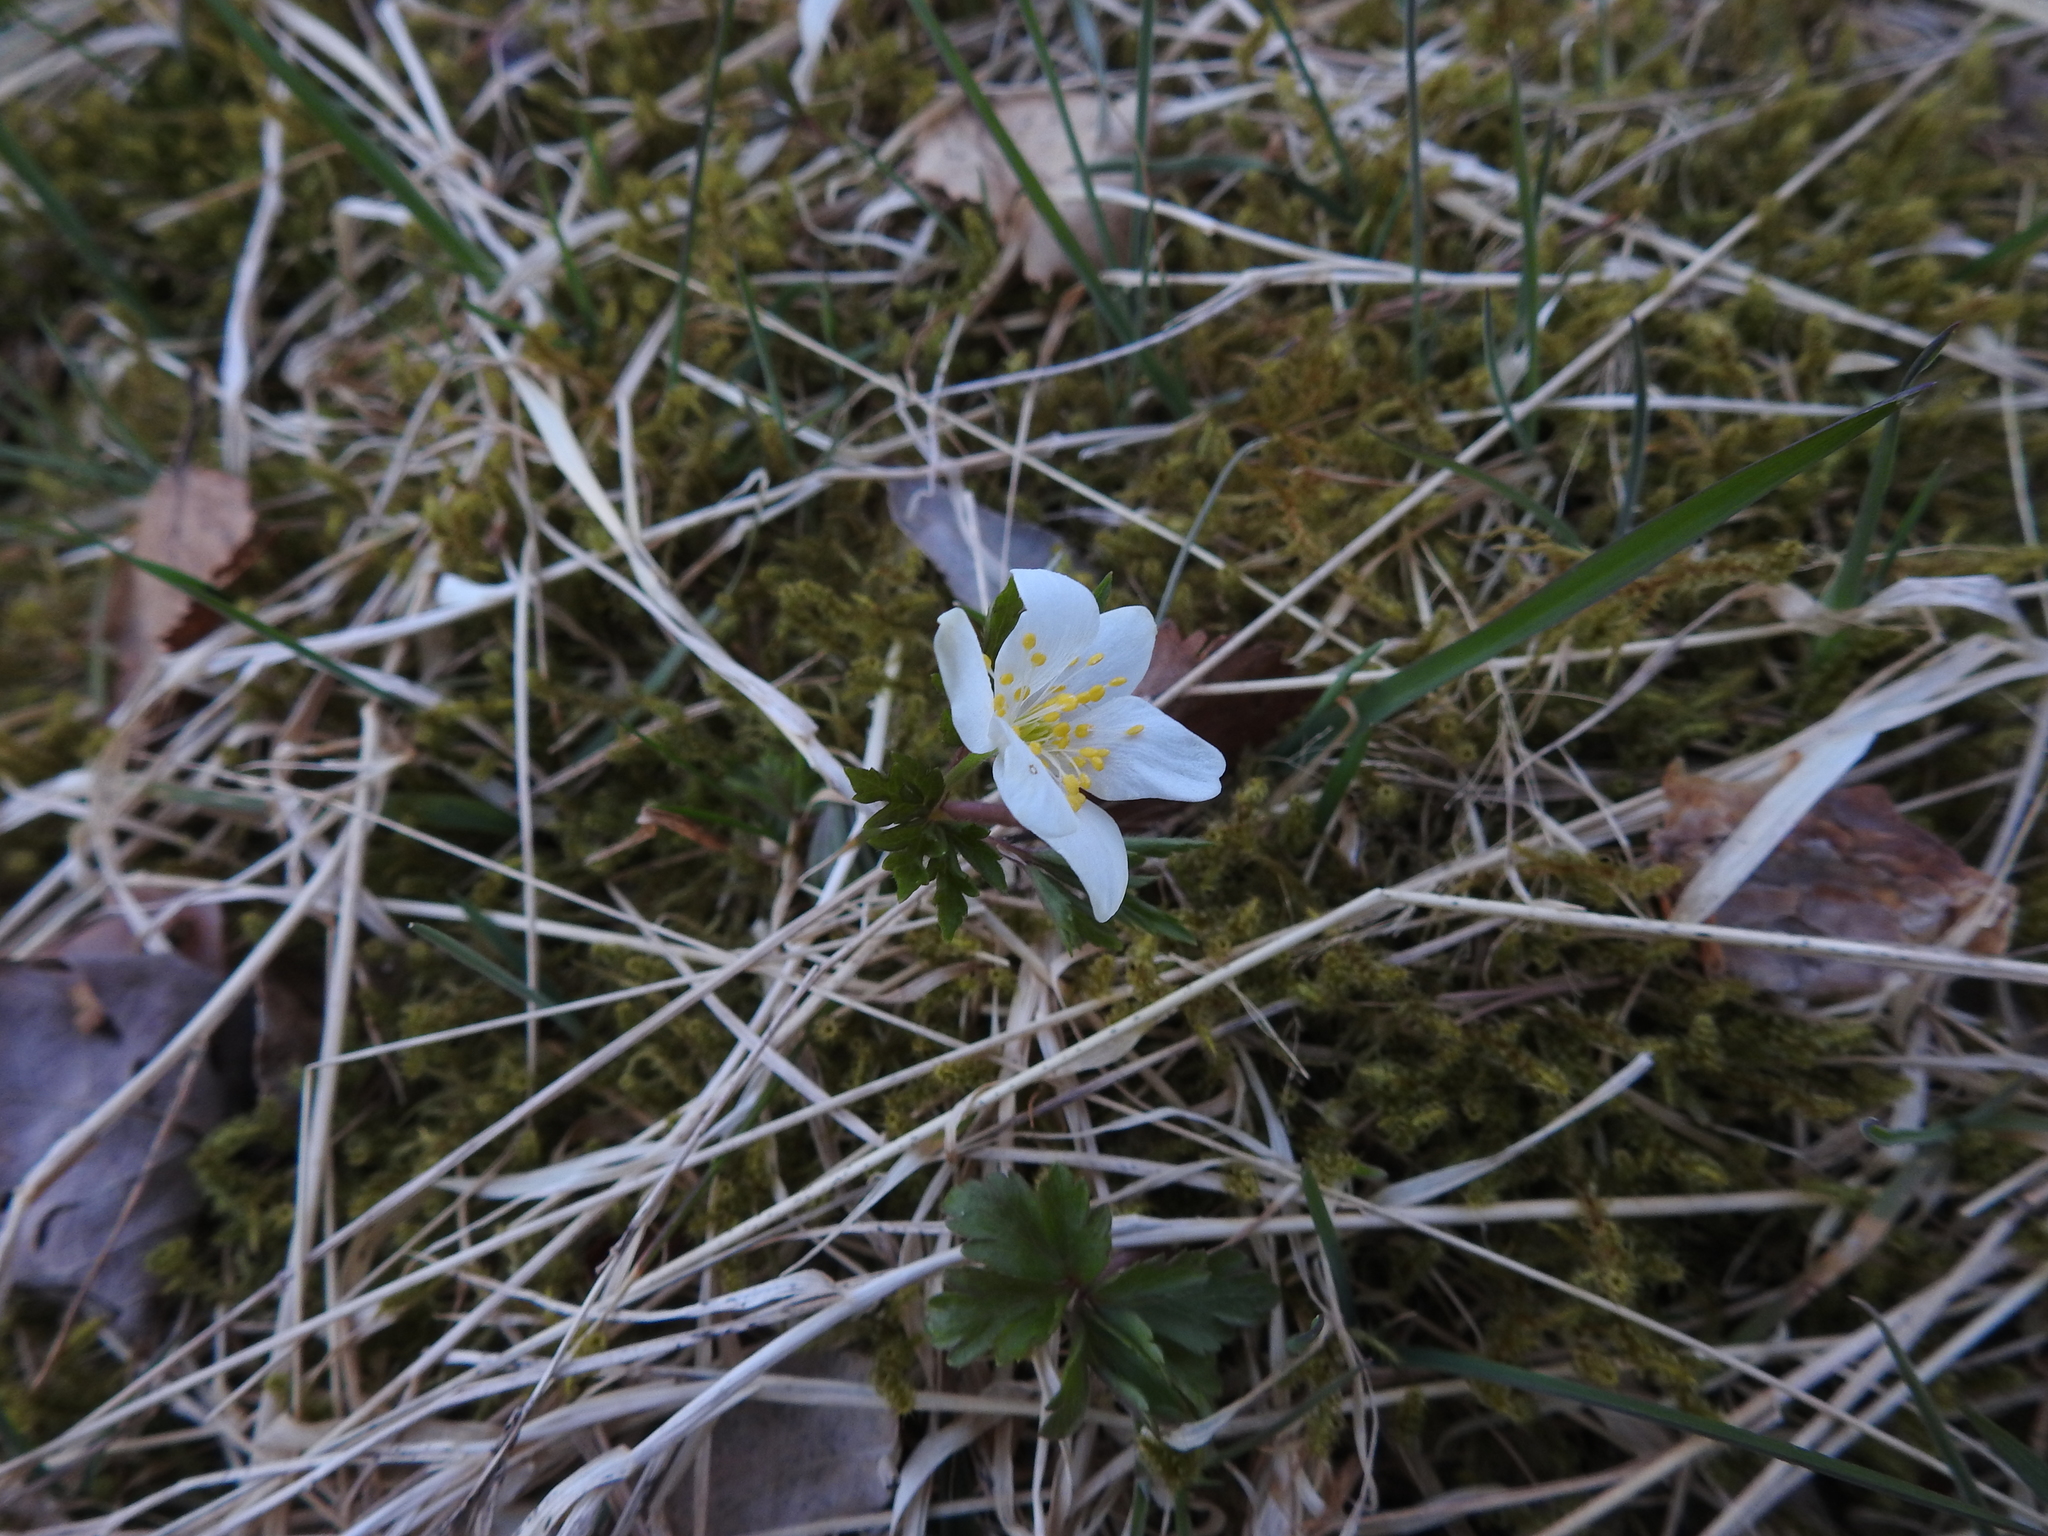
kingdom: Plantae
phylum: Tracheophyta
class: Magnoliopsida
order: Ranunculales
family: Ranunculaceae
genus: Anemone
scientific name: Anemone nemorosa
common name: Wood anemone
